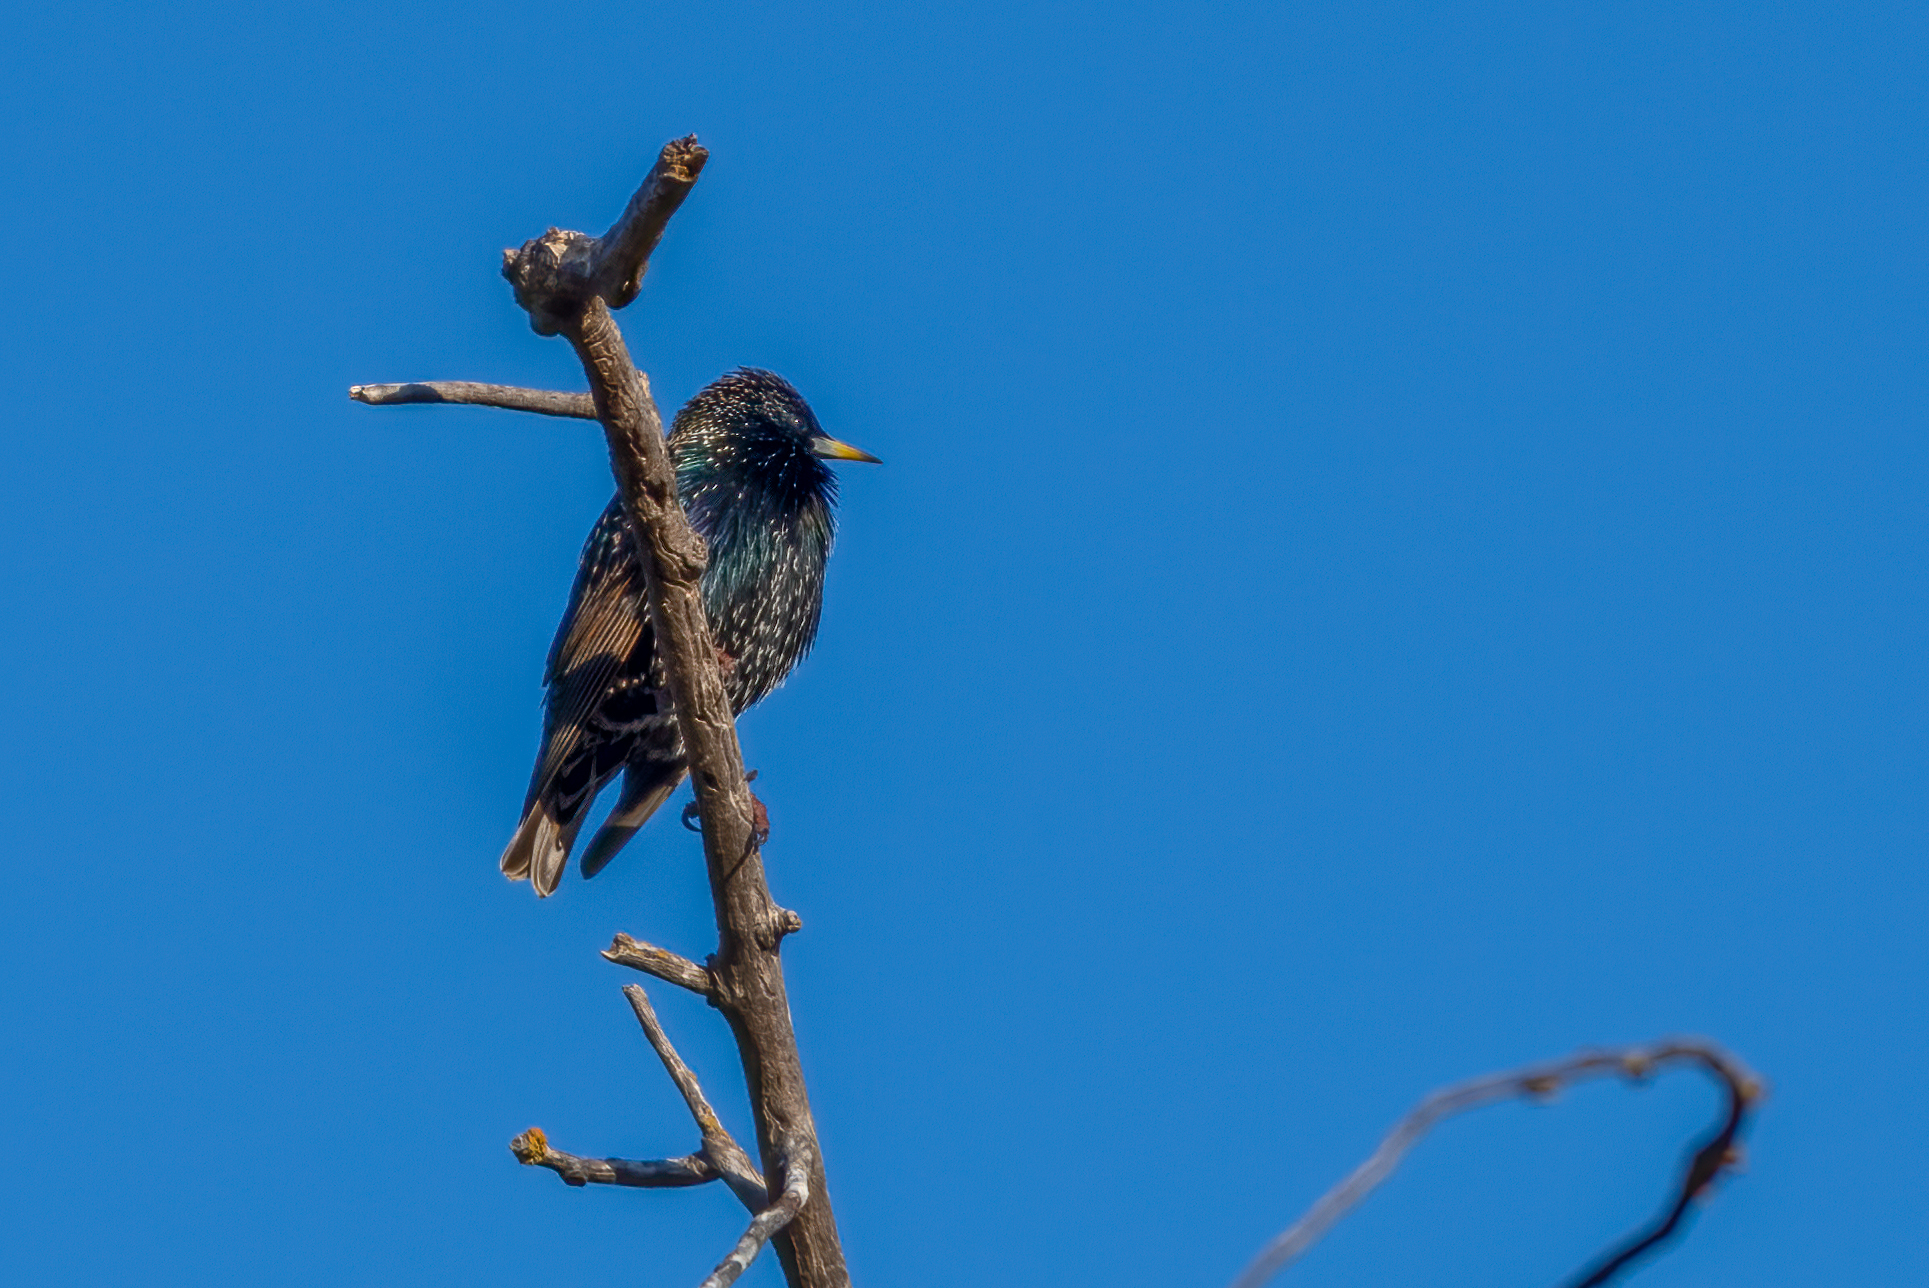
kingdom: Animalia
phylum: Chordata
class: Aves
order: Passeriformes
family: Sturnidae
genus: Sturnus
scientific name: Sturnus vulgaris
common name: Common starling
